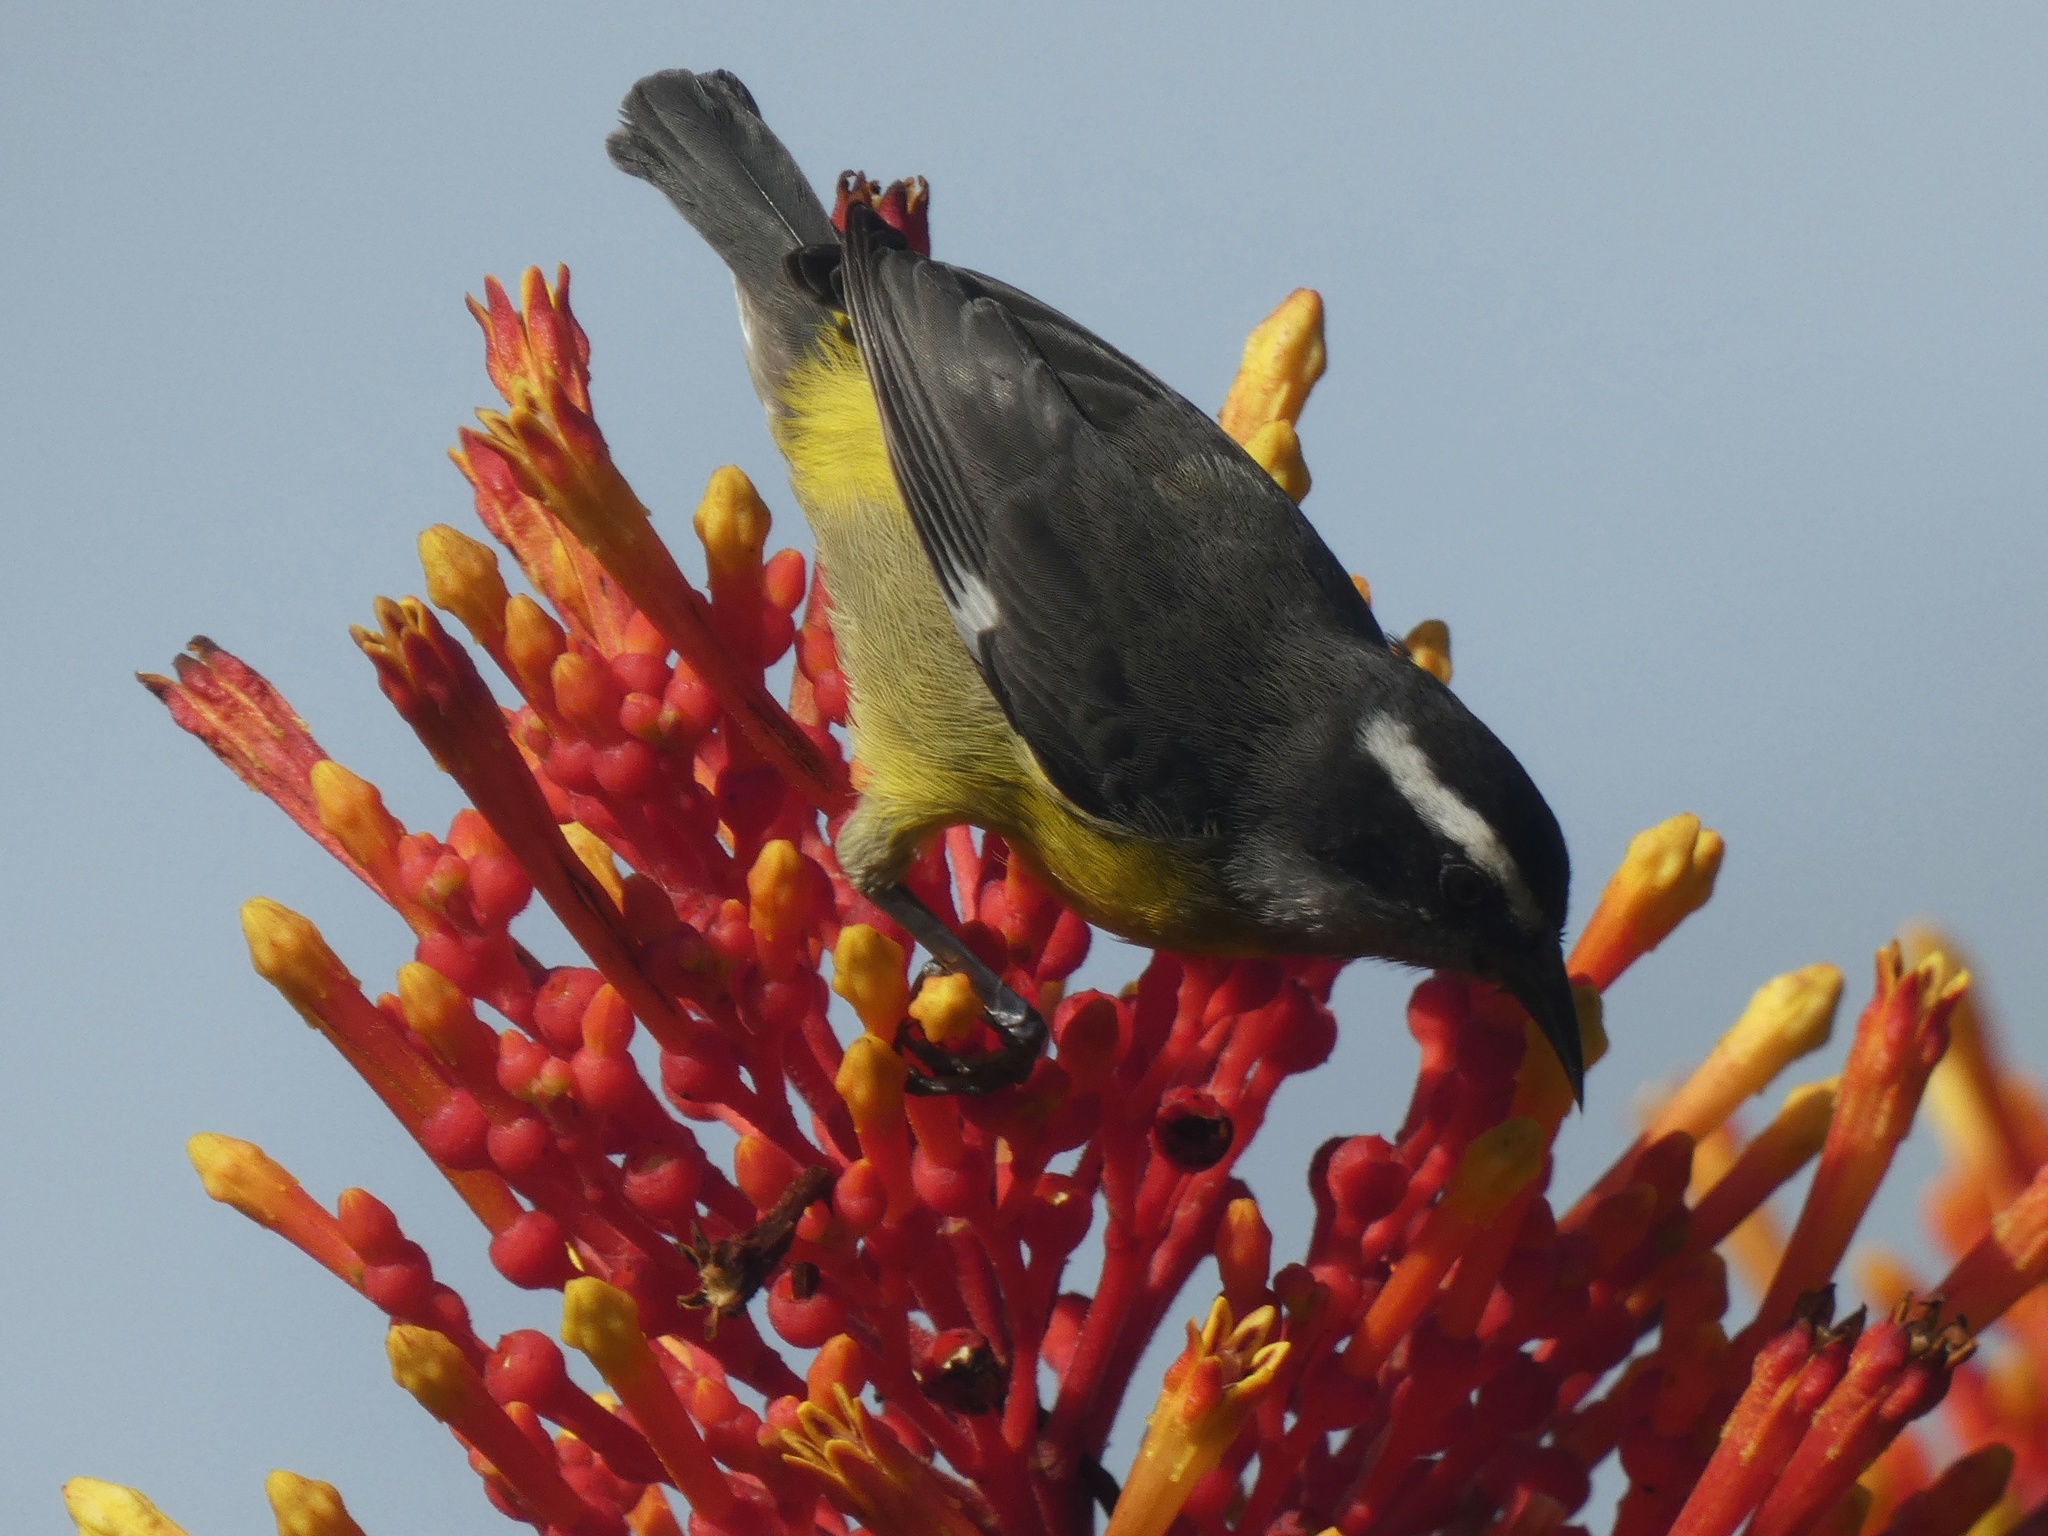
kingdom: Animalia
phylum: Chordata
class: Aves
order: Passeriformes
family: Thraupidae
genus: Coereba
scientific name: Coereba flaveola
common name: Bananaquit
